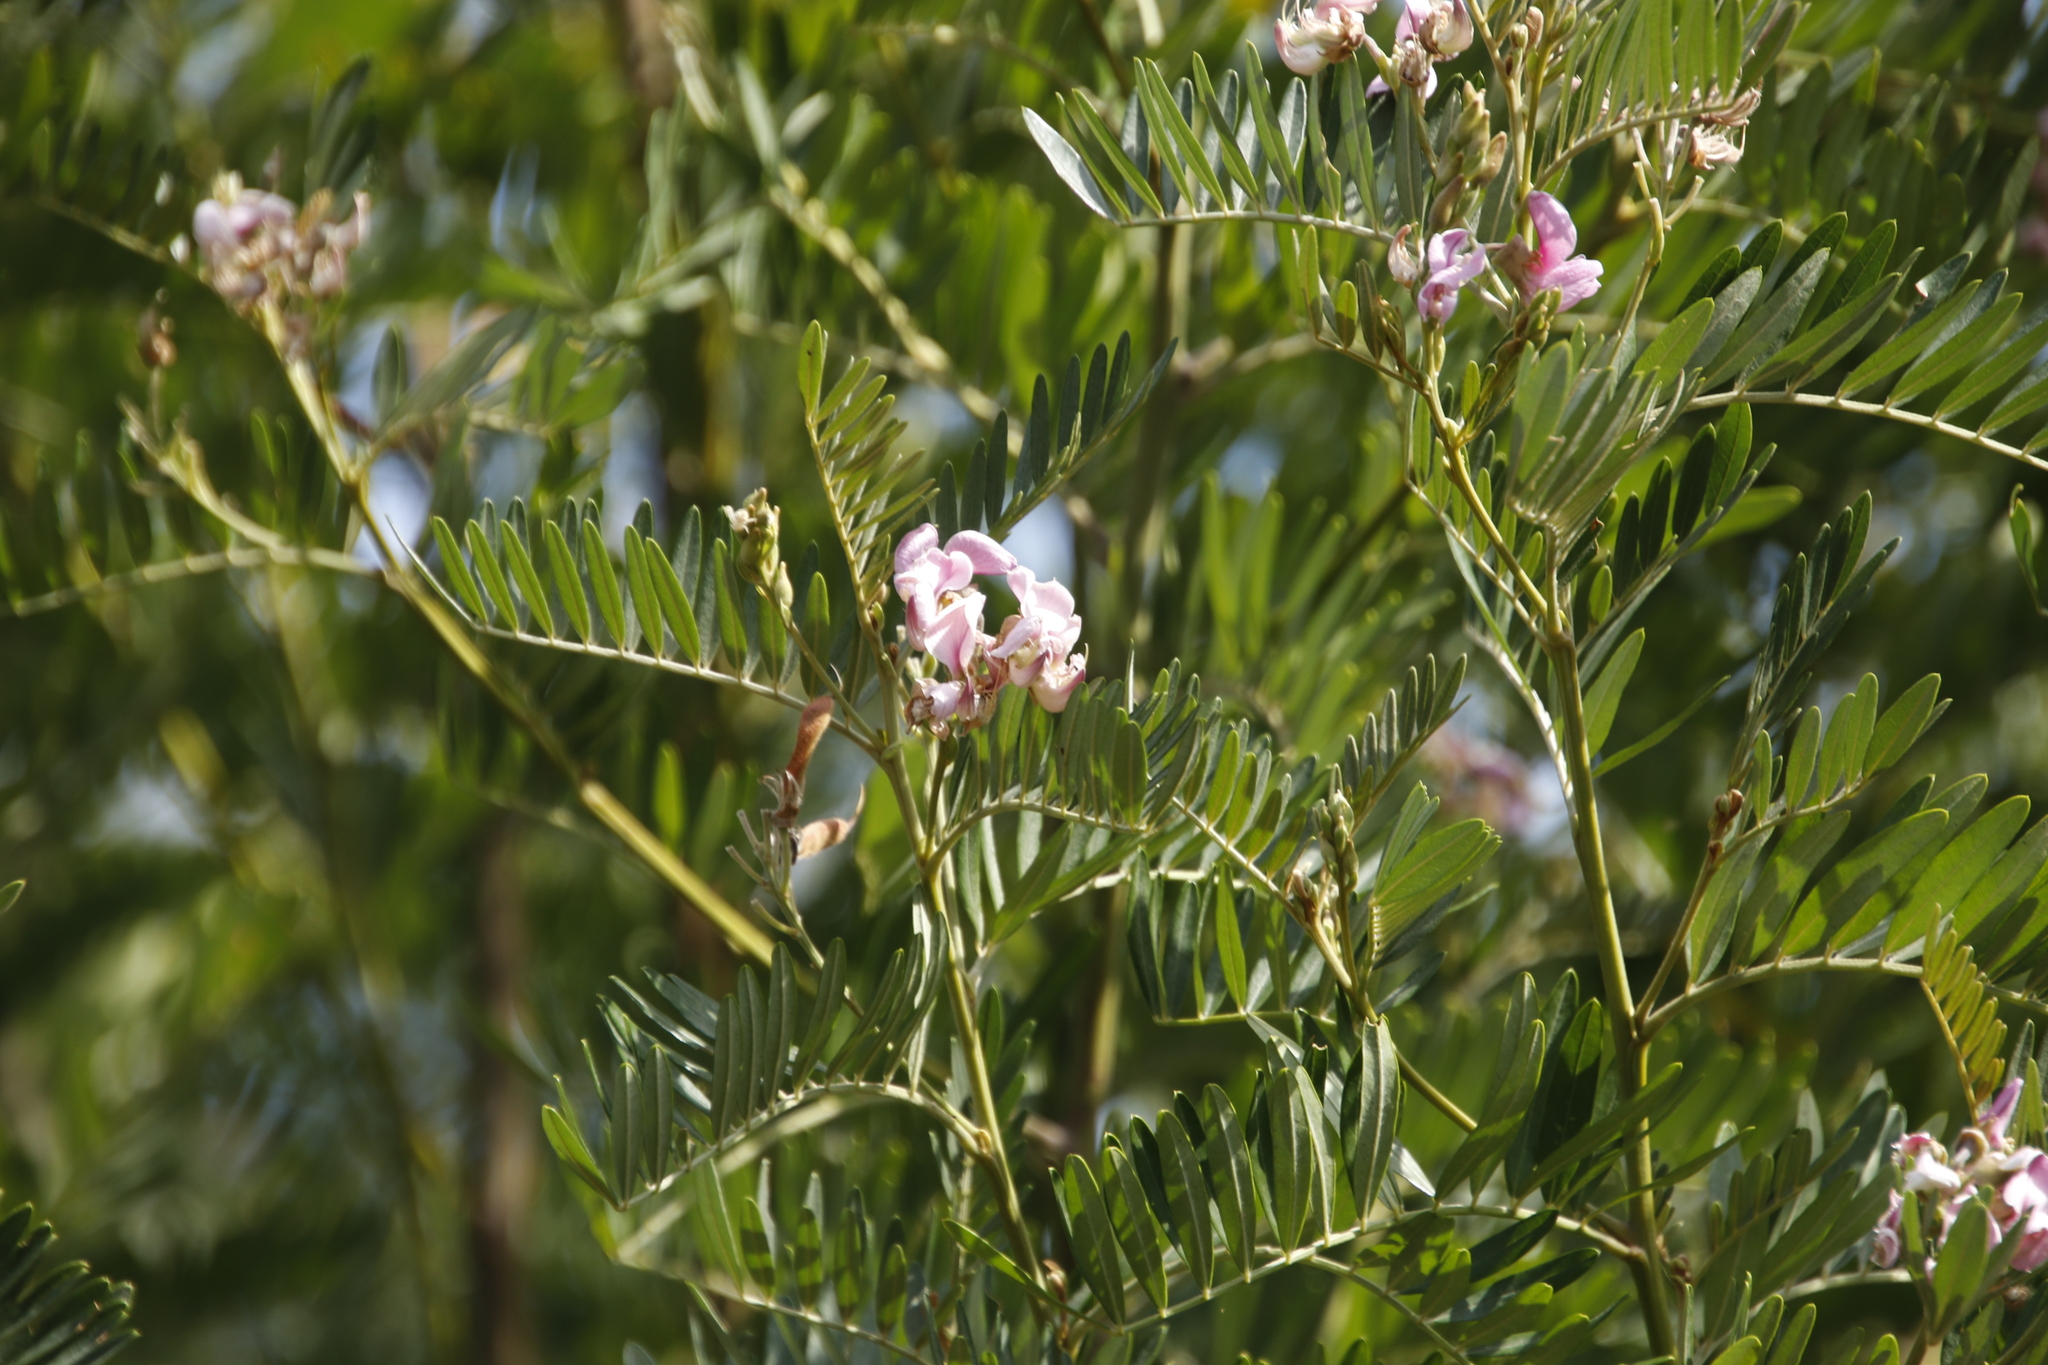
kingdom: Plantae
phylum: Tracheophyta
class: Magnoliopsida
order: Fabales
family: Fabaceae
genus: Virgilia
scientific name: Virgilia oroboides
